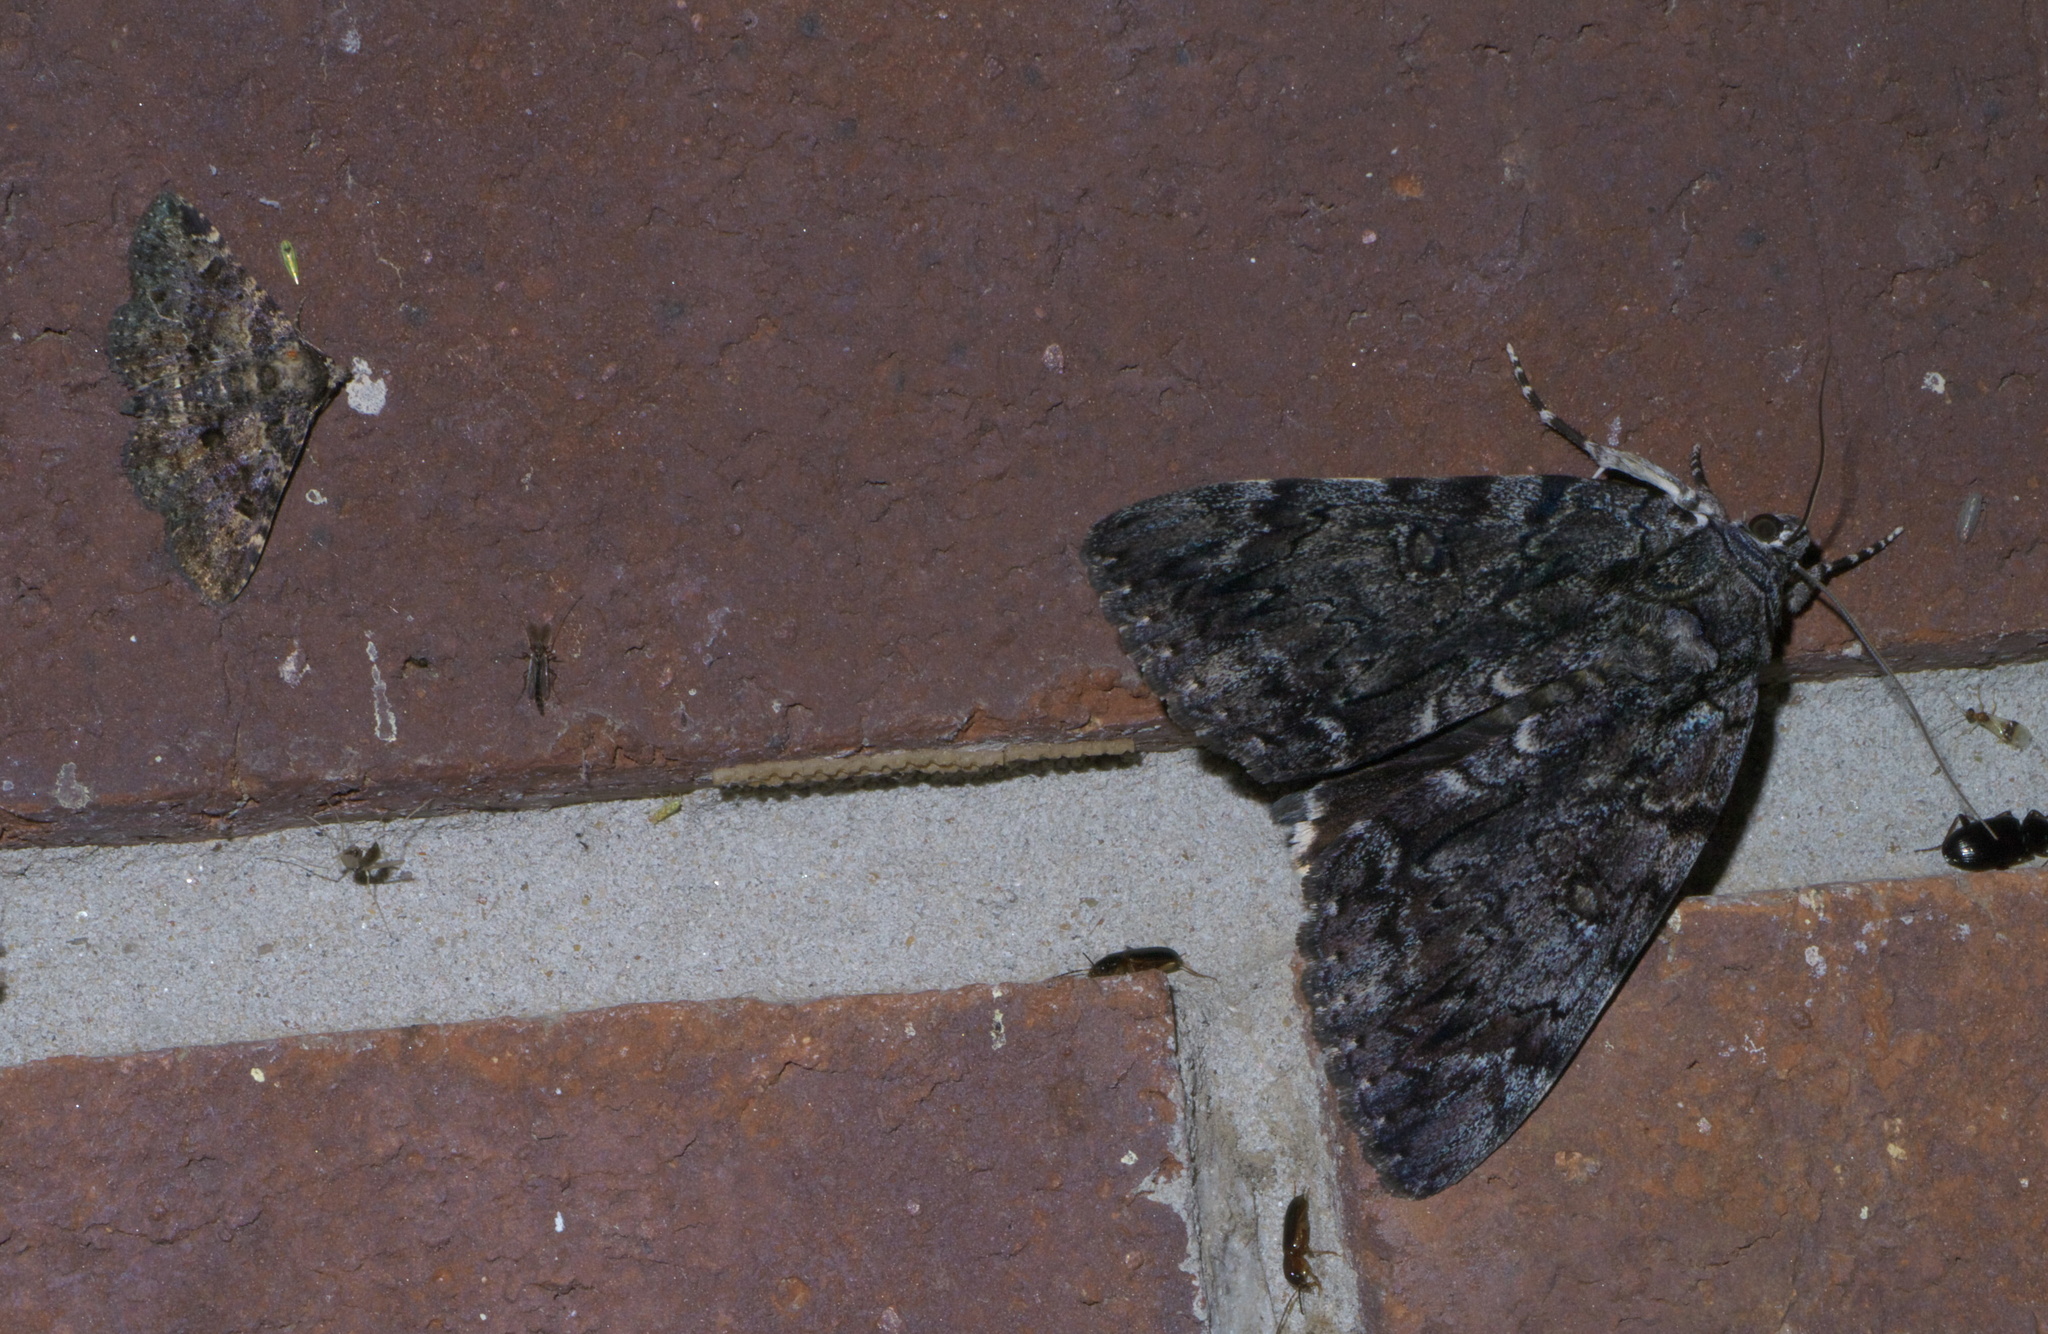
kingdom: Animalia
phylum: Arthropoda
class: Insecta
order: Lepidoptera
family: Erebidae
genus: Catocala
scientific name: Catocala lacrymosa
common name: Tearful underwing
